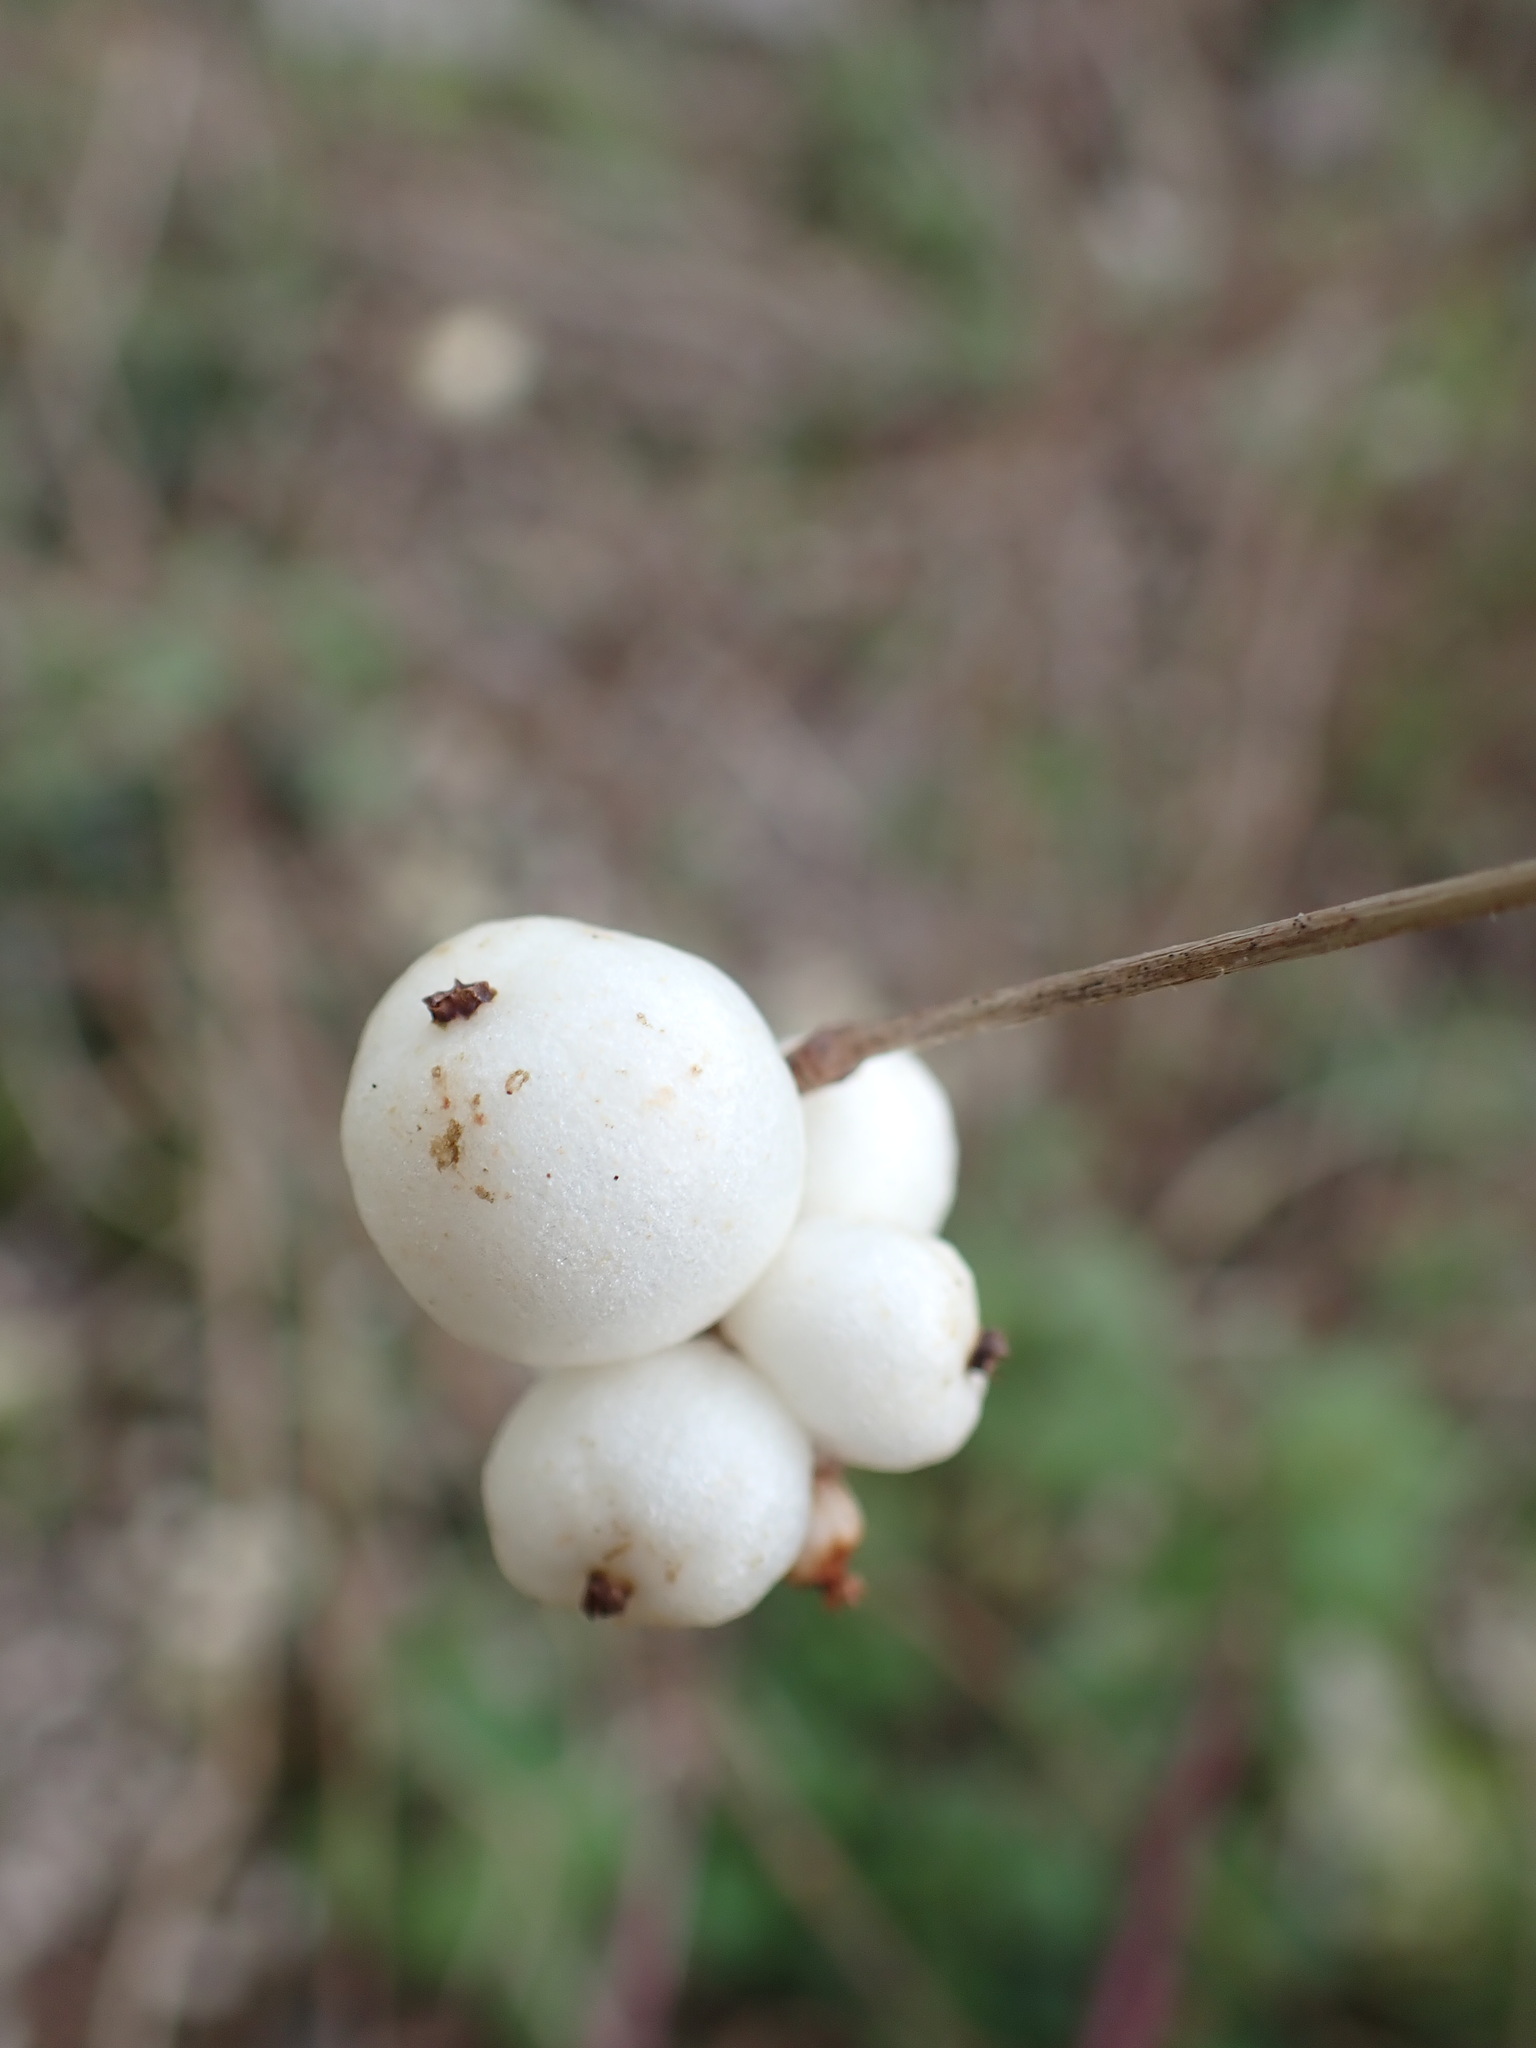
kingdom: Plantae
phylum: Tracheophyta
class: Magnoliopsida
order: Dipsacales
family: Caprifoliaceae
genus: Symphoricarpos
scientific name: Symphoricarpos albus
